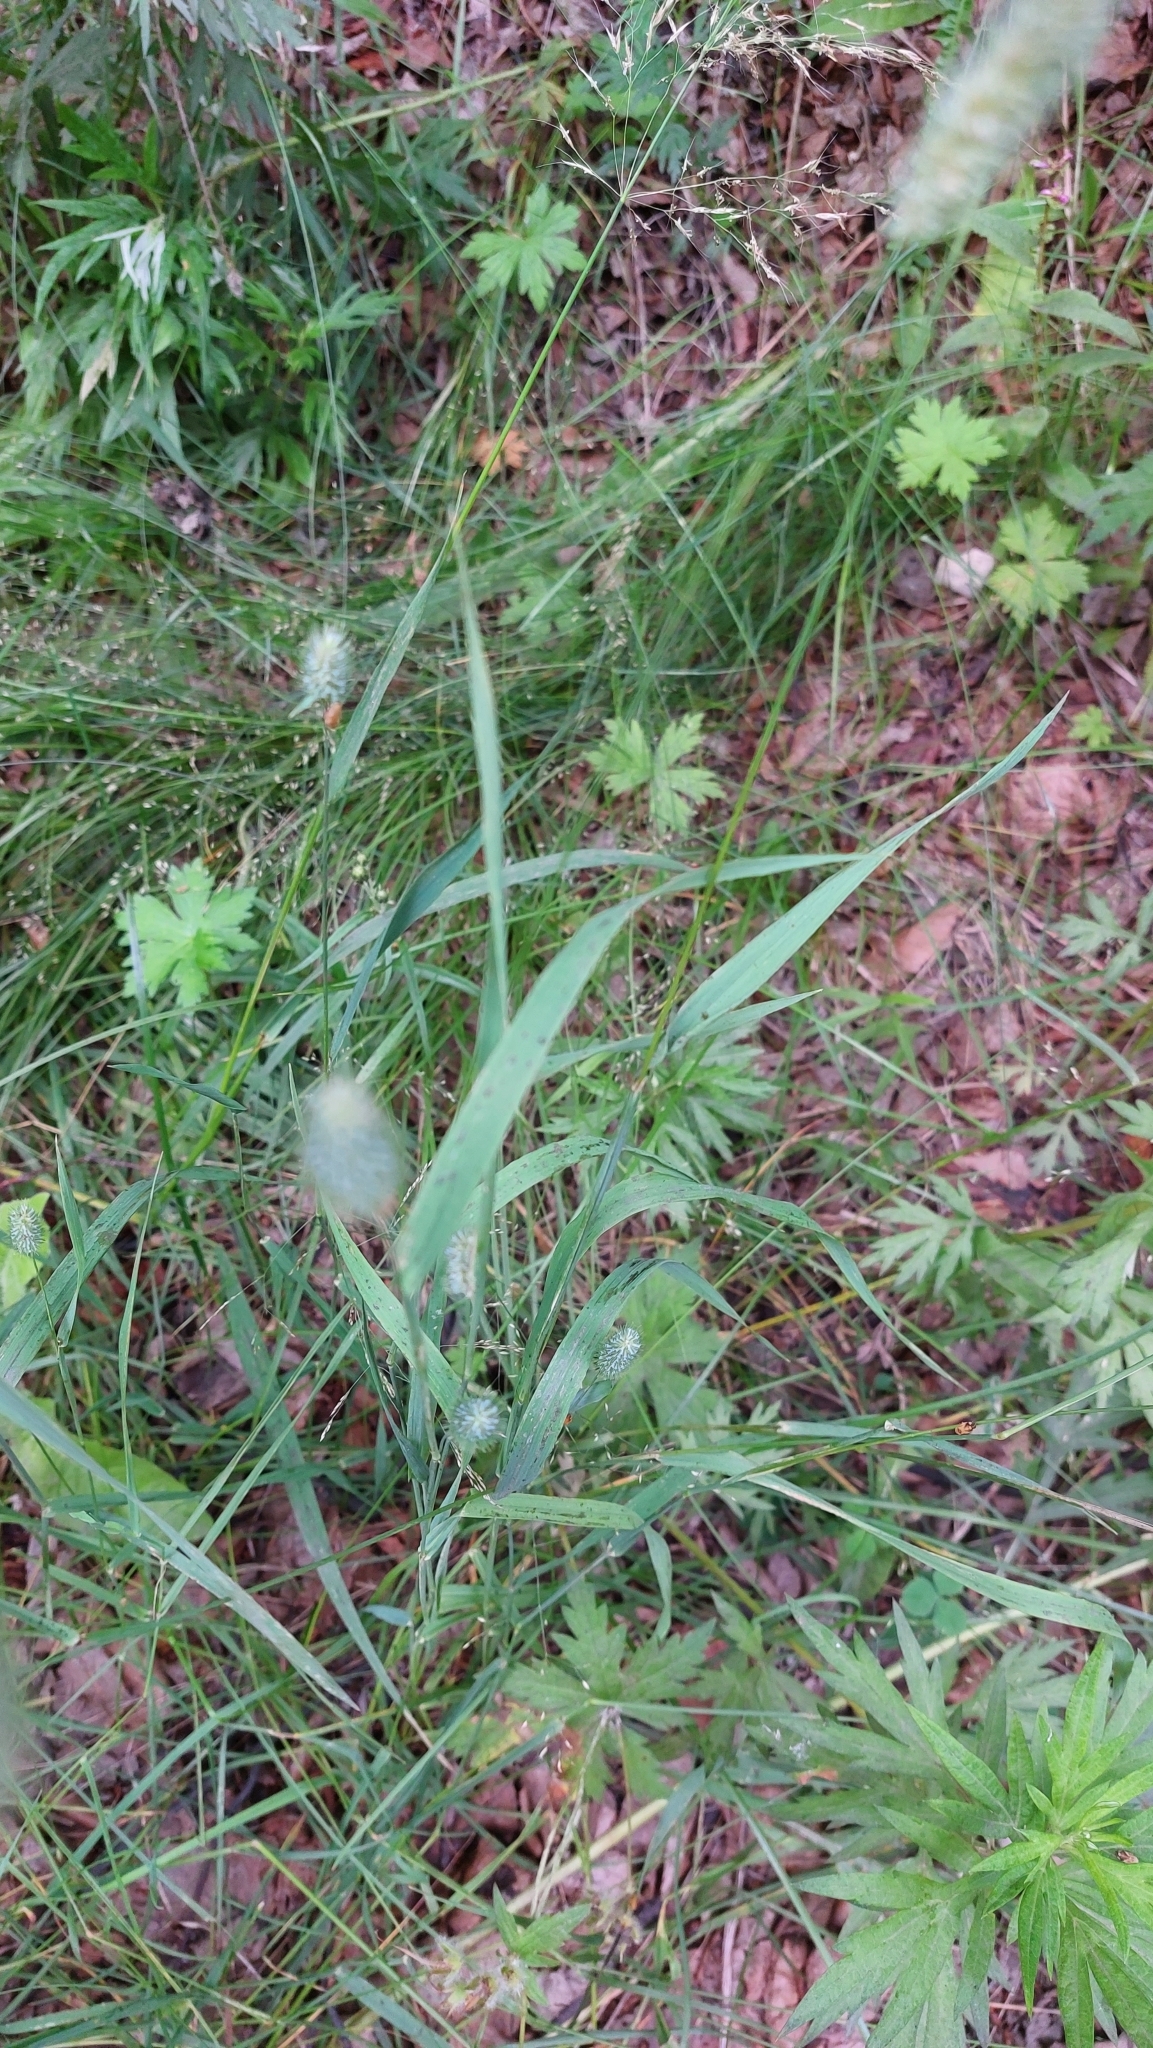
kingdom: Plantae
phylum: Tracheophyta
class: Liliopsida
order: Poales
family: Poaceae
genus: Phleum
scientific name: Phleum pratense
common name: Timothy grass
